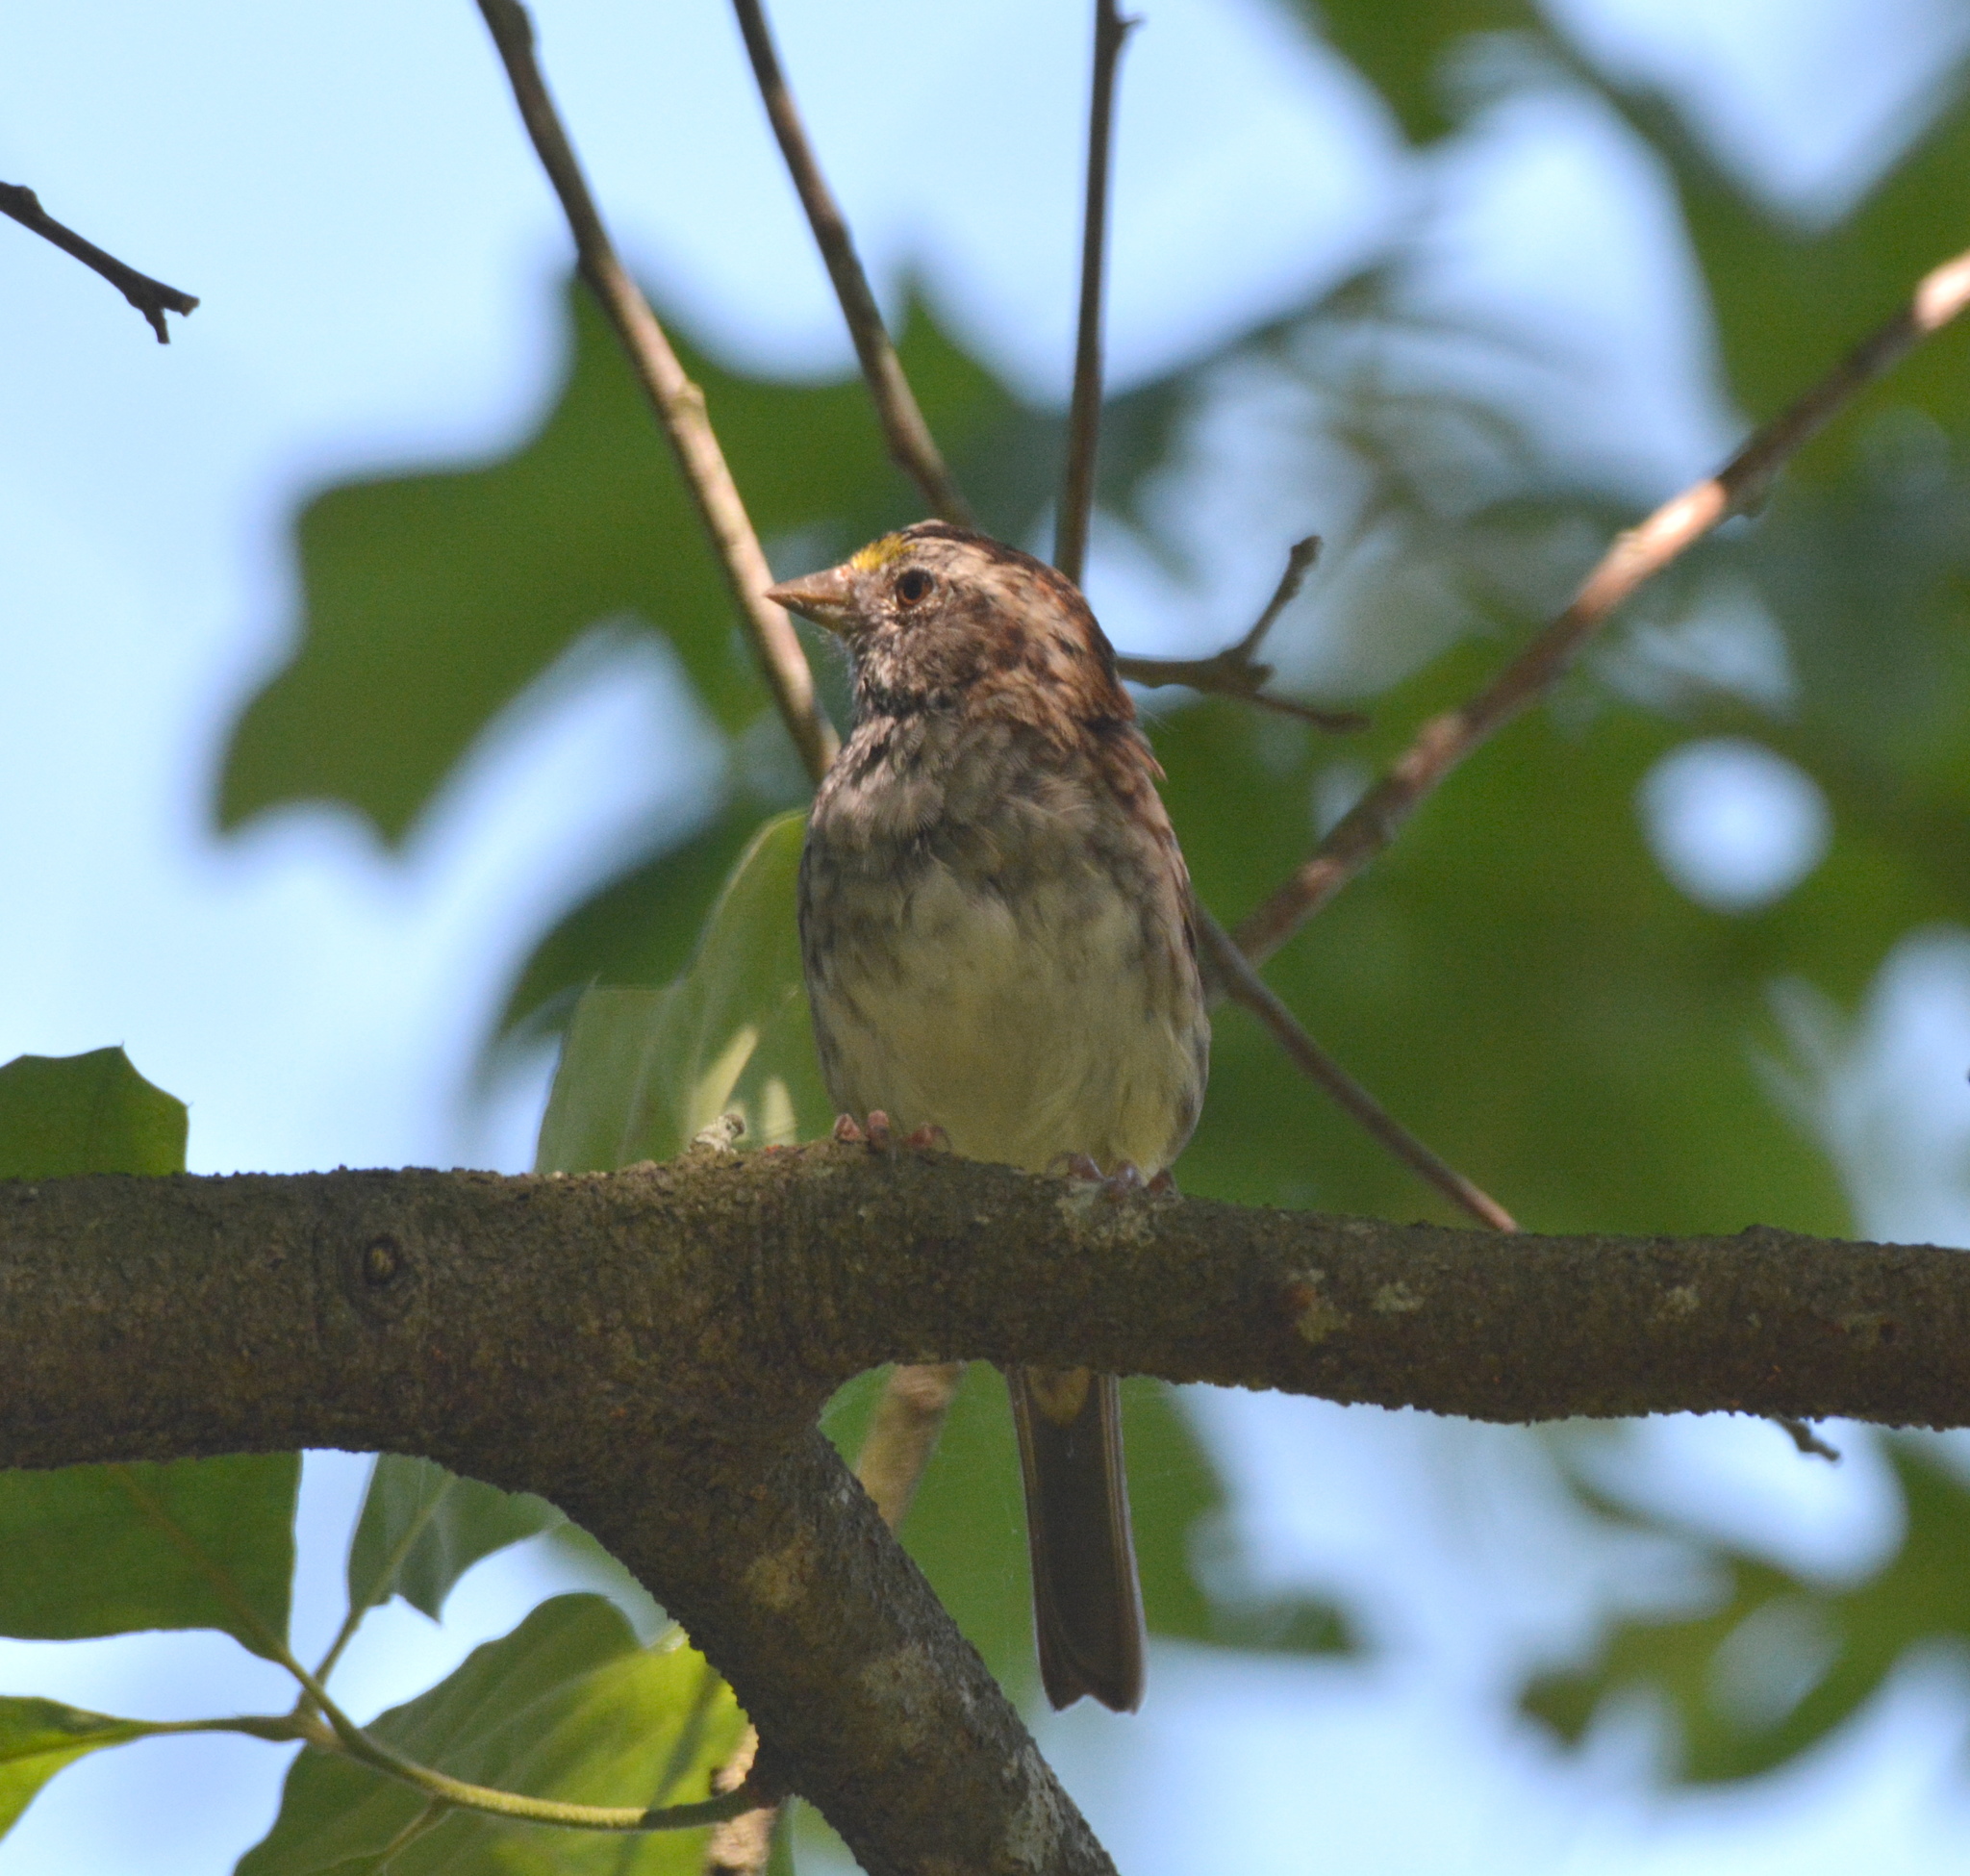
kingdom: Animalia
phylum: Chordata
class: Aves
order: Passeriformes
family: Passerellidae
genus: Zonotrichia
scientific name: Zonotrichia albicollis
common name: White-throated sparrow
